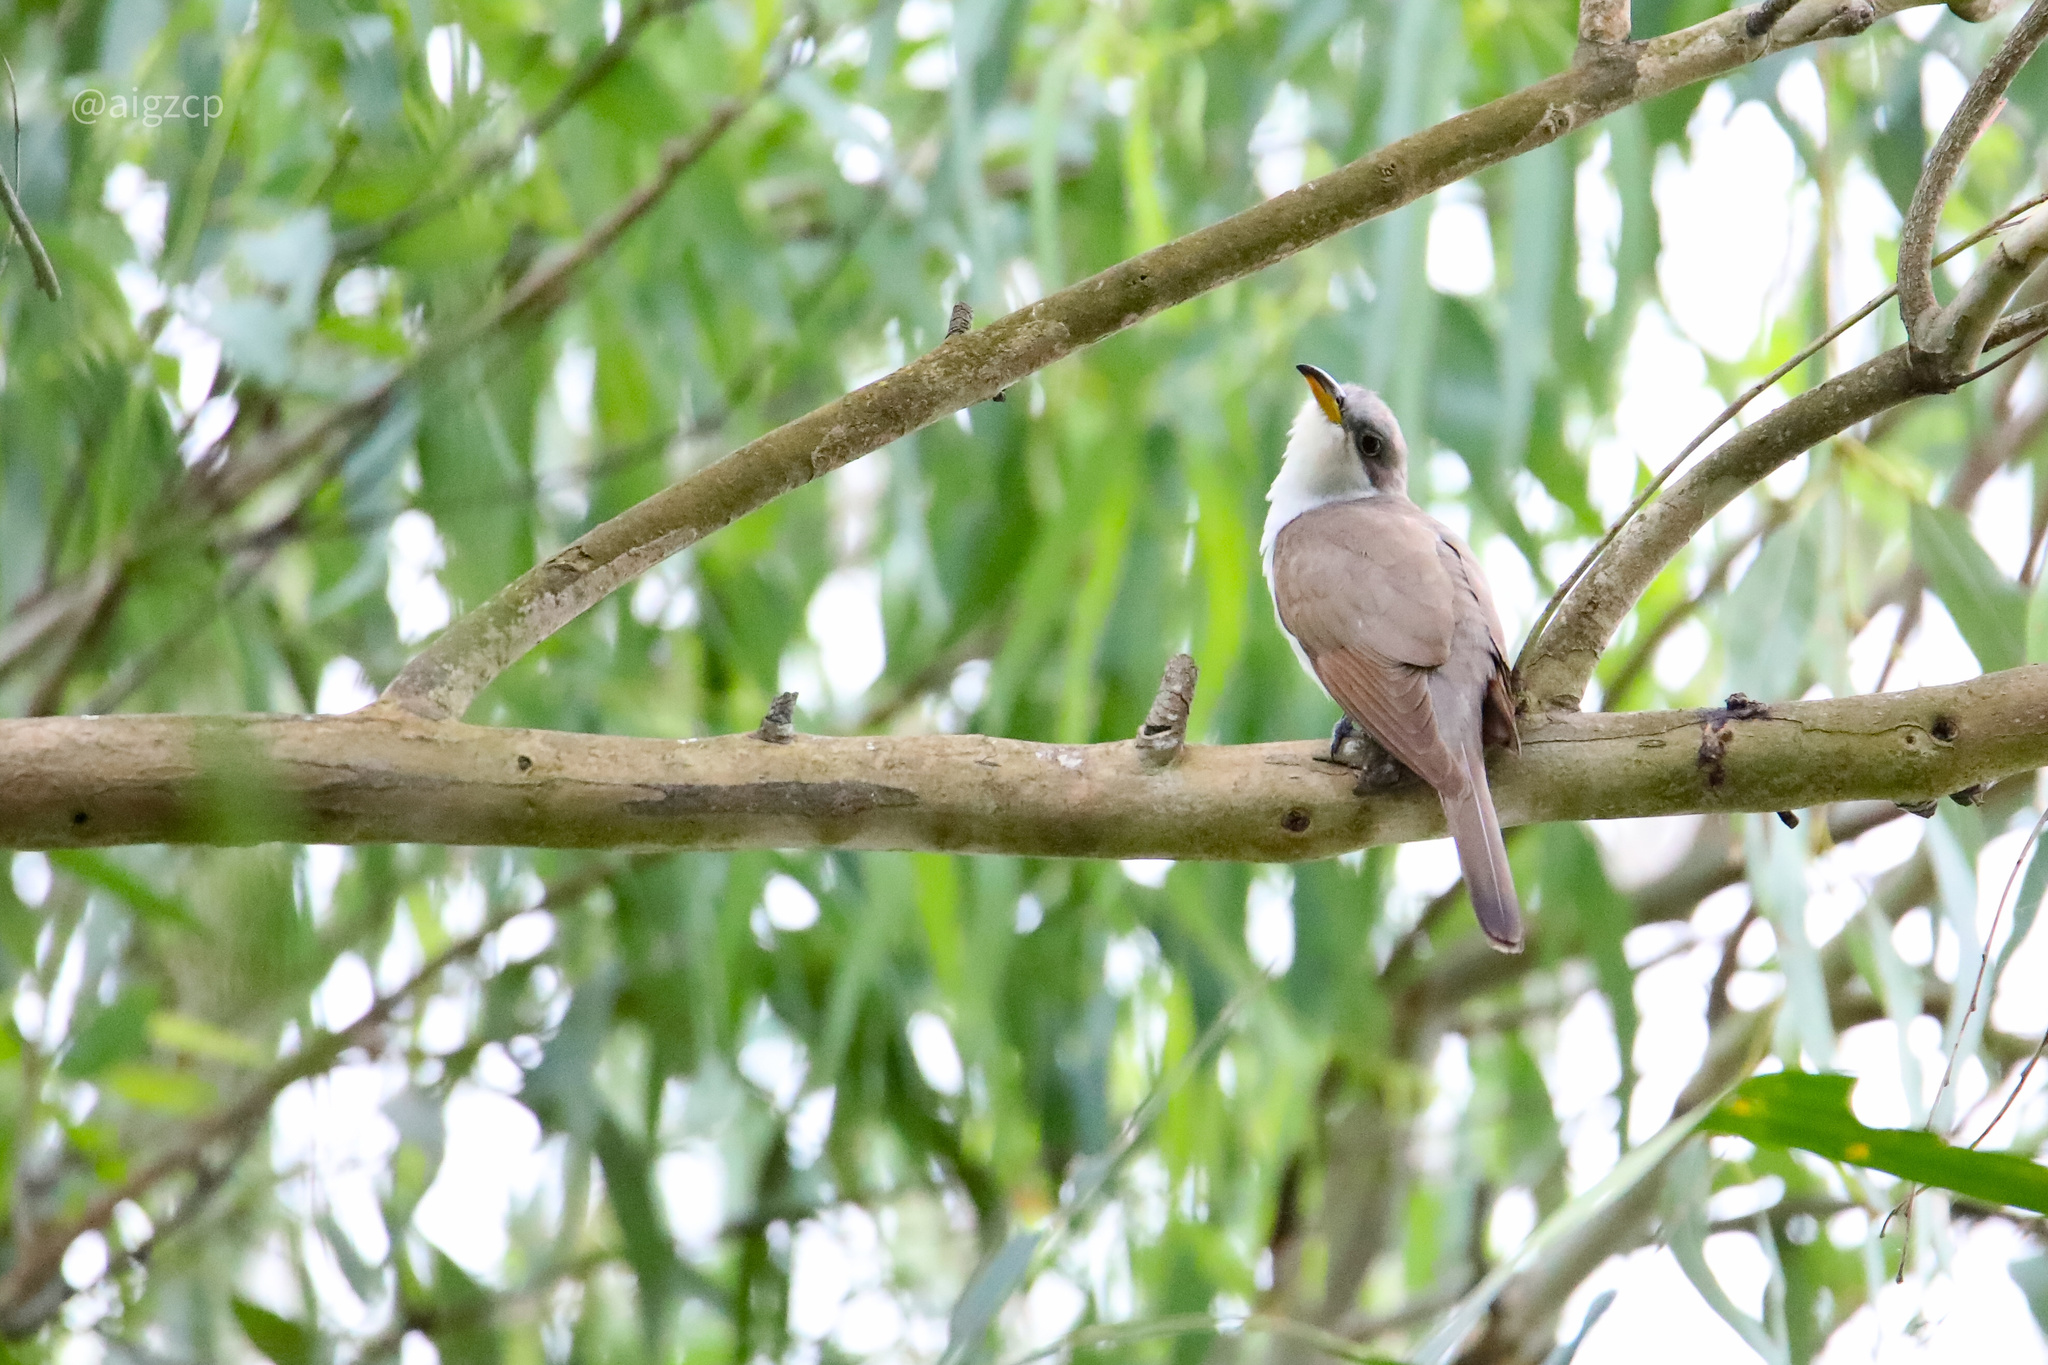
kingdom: Animalia
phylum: Chordata
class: Aves
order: Cuculiformes
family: Cuculidae
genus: Coccyzus
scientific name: Coccyzus americanus
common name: Yellow-billed cuckoo
